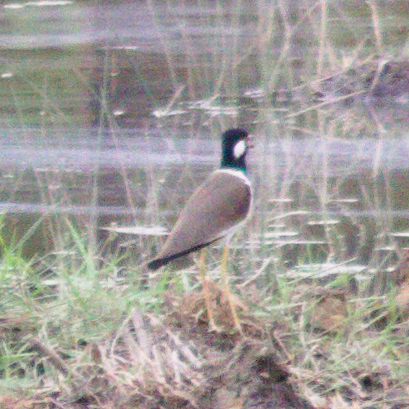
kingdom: Animalia
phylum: Chordata
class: Aves
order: Charadriiformes
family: Charadriidae
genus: Vanellus
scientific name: Vanellus indicus
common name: Red-wattled lapwing
